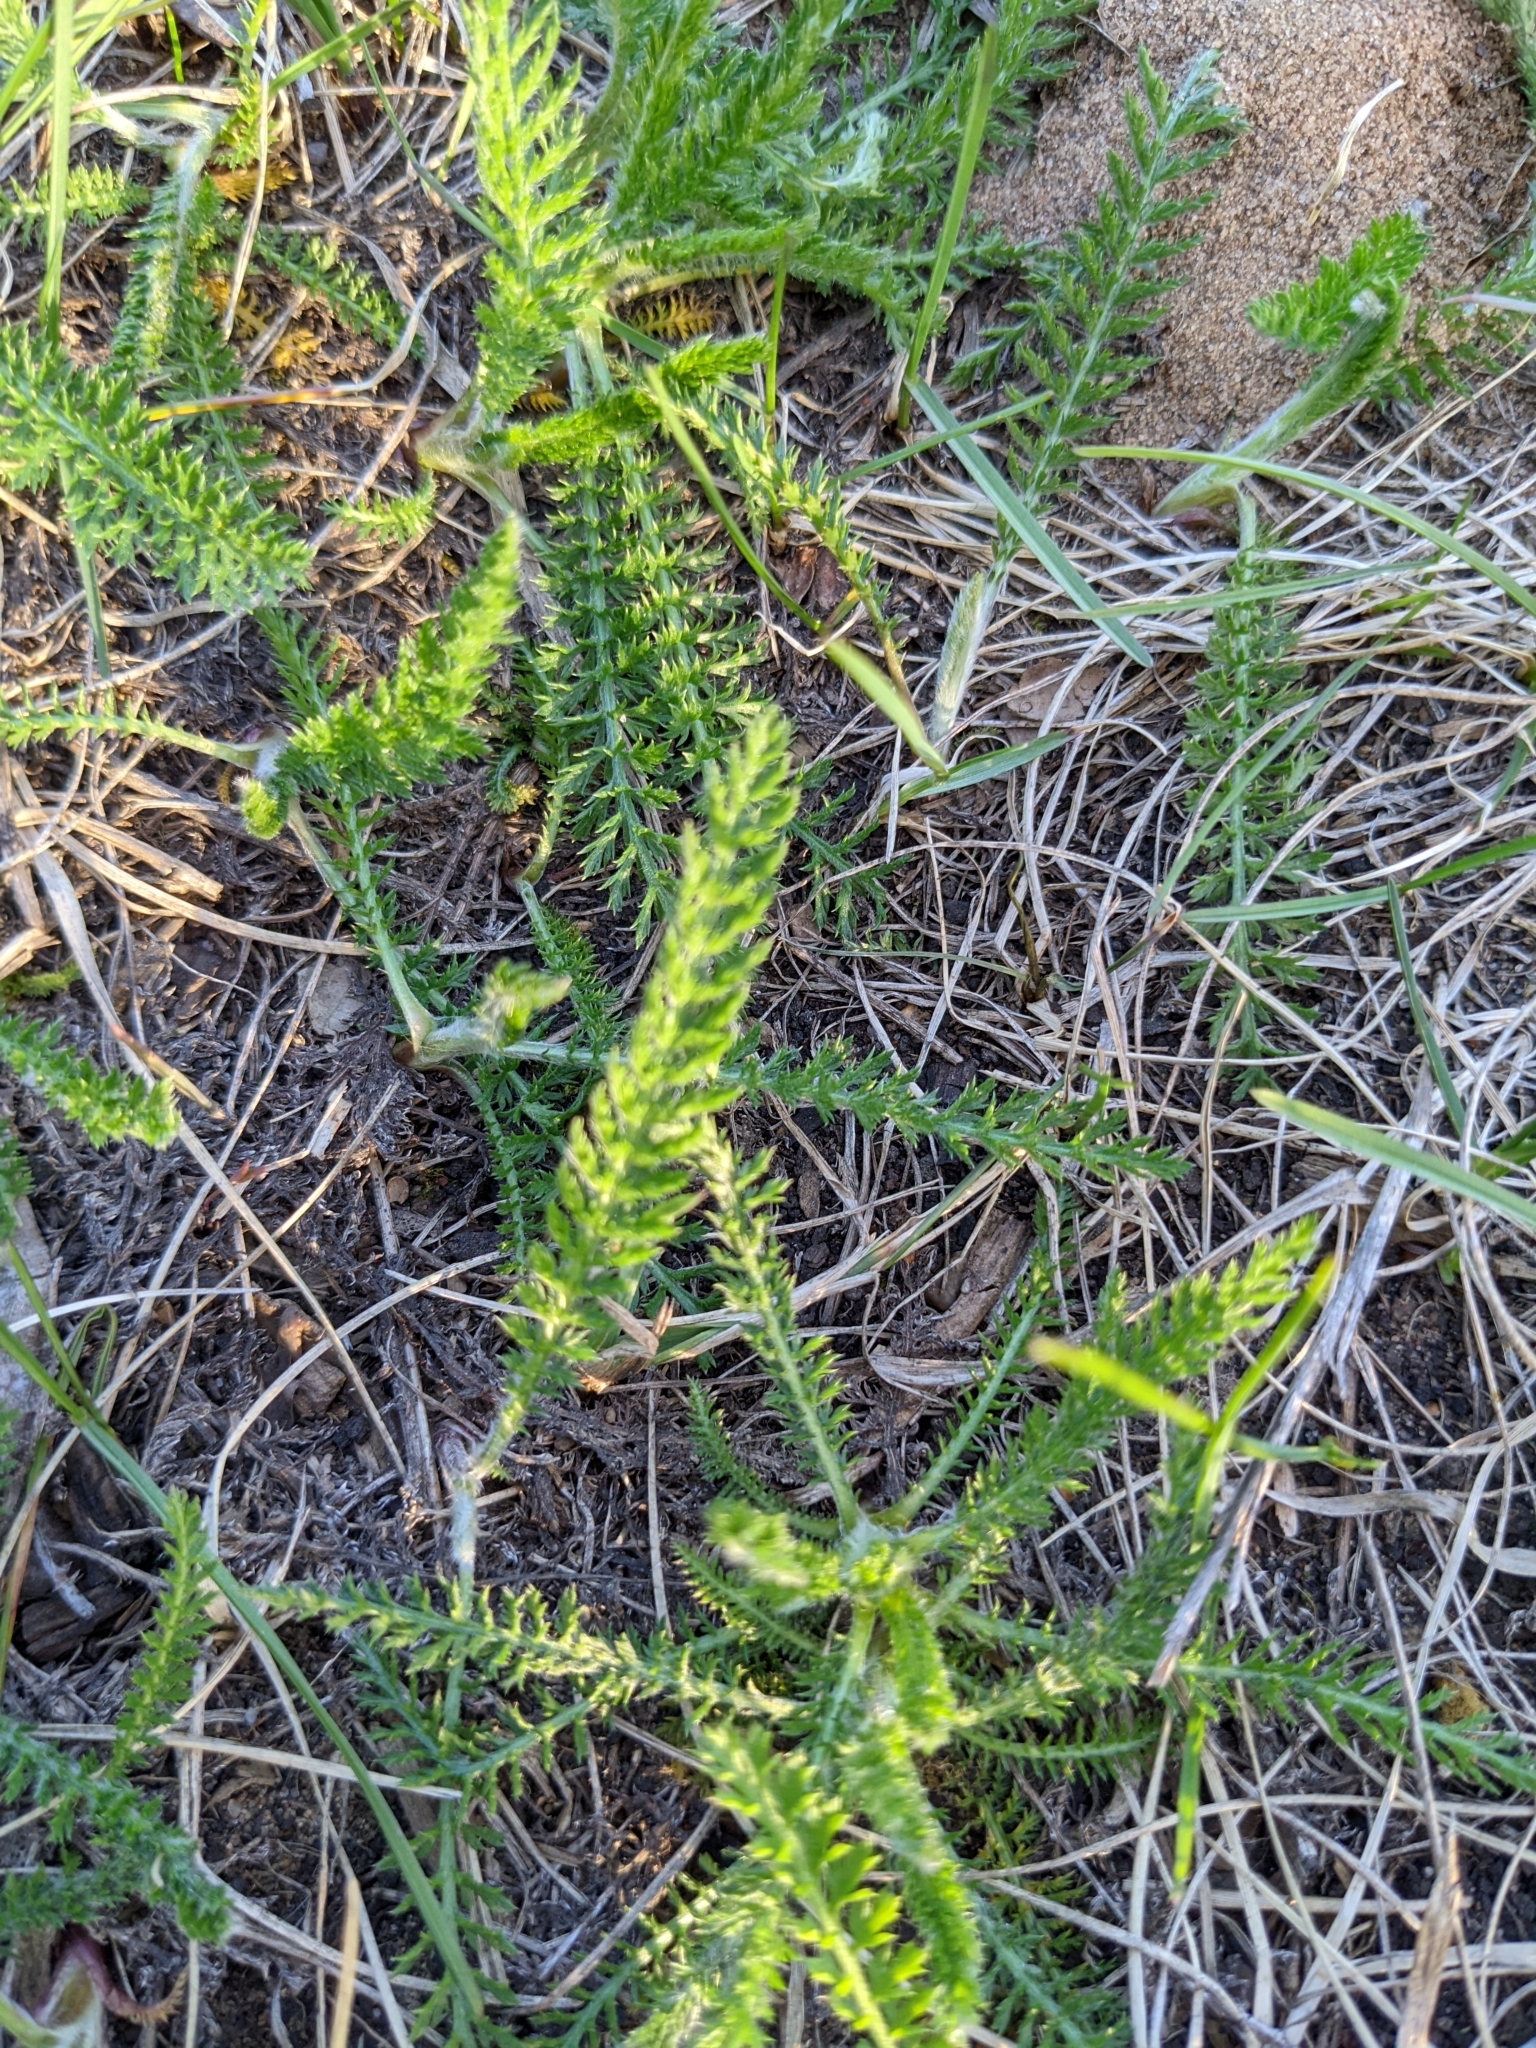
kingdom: Plantae
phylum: Tracheophyta
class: Magnoliopsida
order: Asterales
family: Asteraceae
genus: Achillea
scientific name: Achillea millefolium
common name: Yarrow
